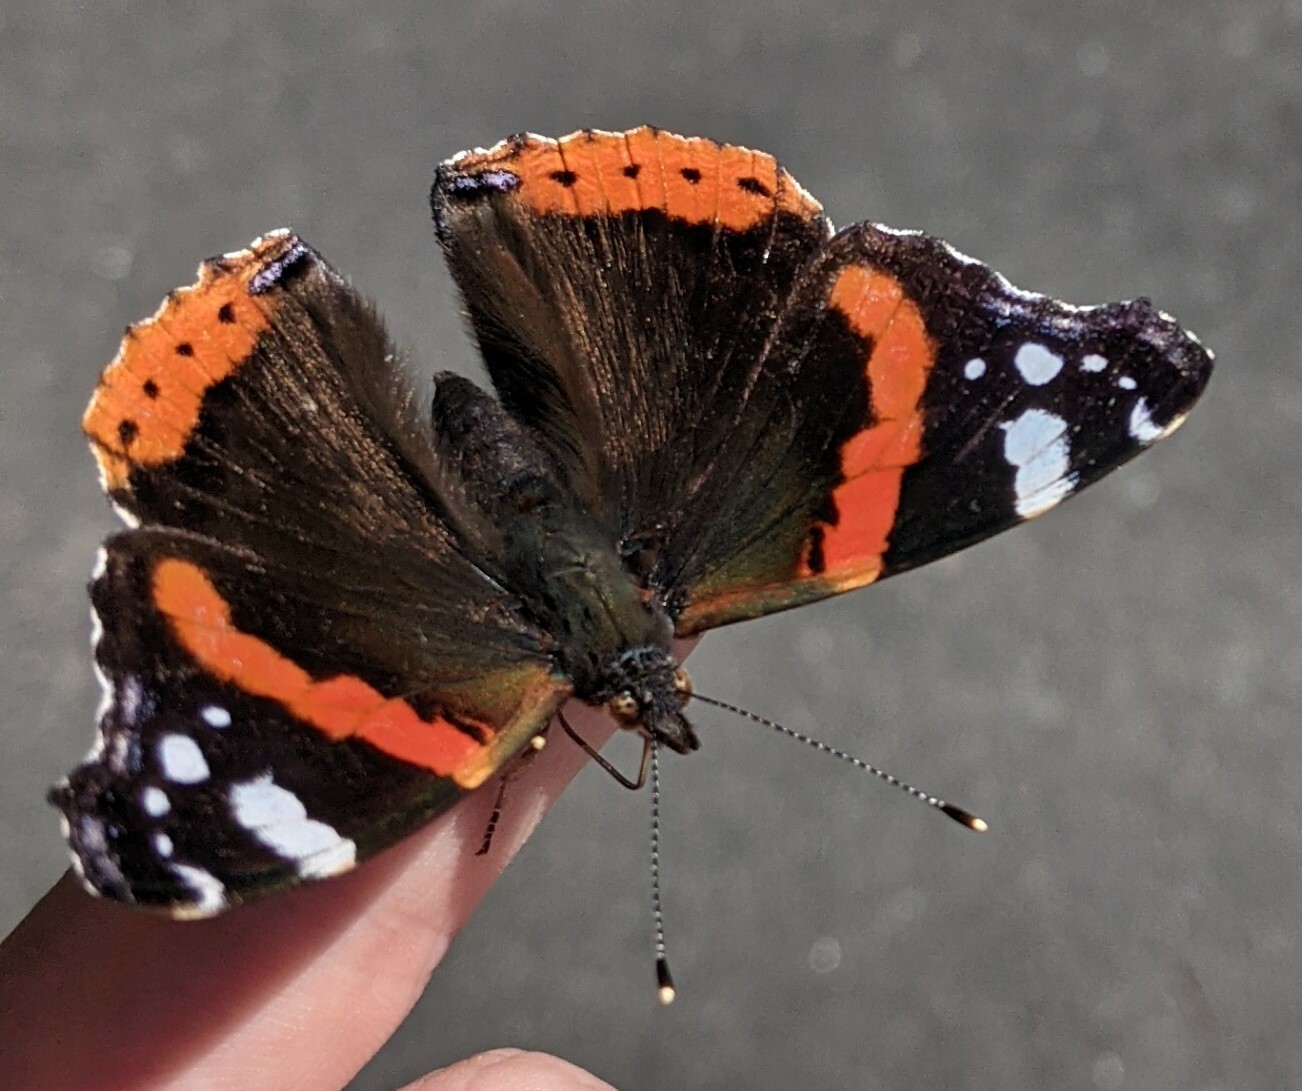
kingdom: Animalia
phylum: Arthropoda
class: Insecta
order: Lepidoptera
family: Nymphalidae
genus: Vanessa
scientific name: Vanessa atalanta
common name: Red admiral
